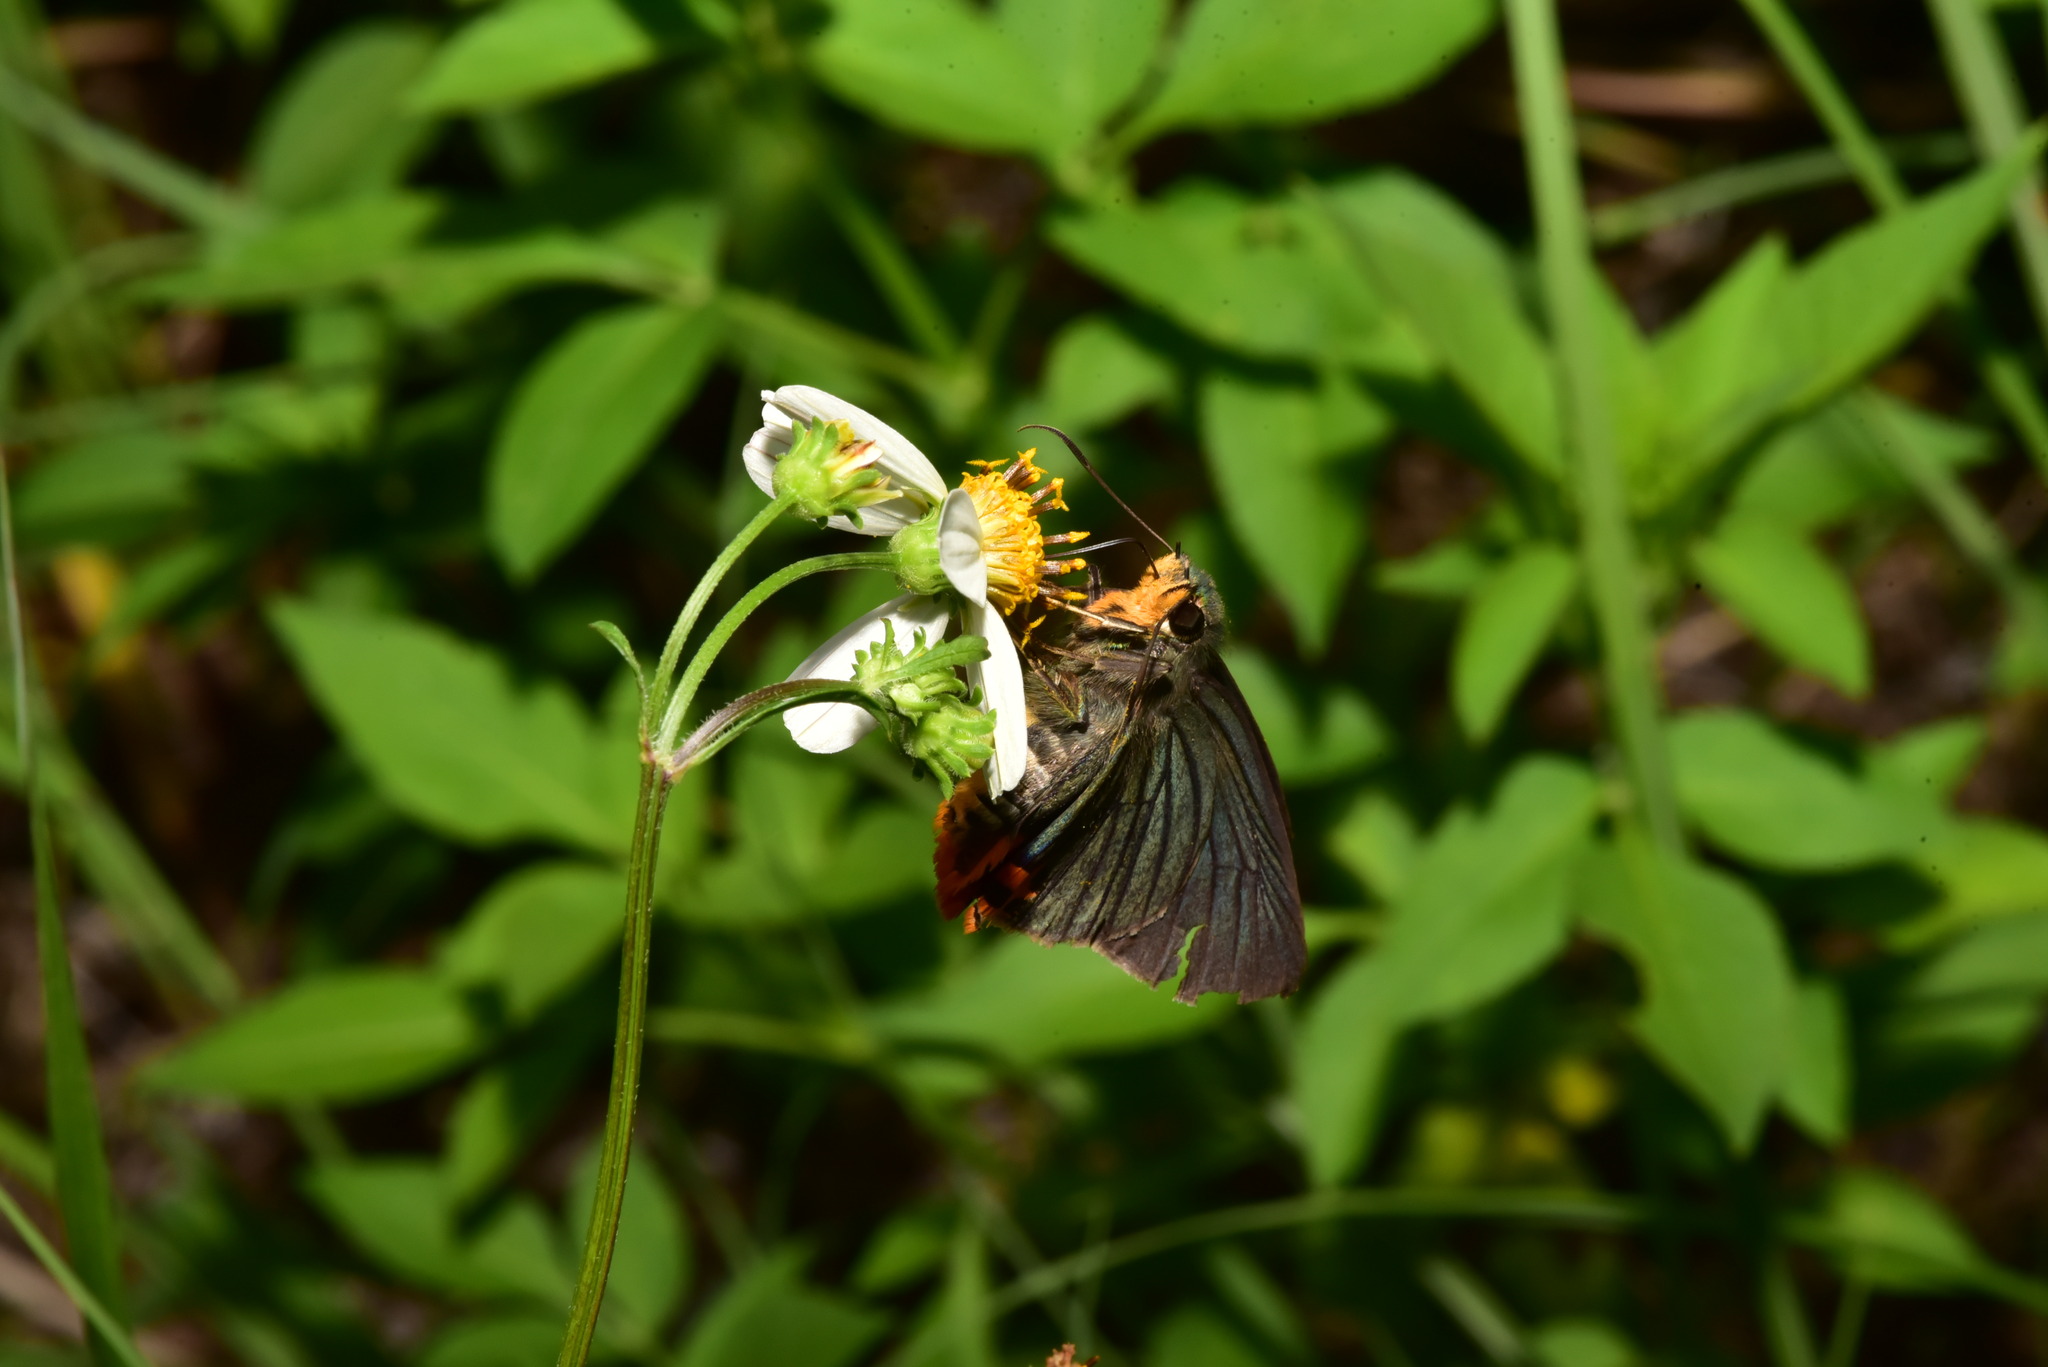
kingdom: Animalia
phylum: Arthropoda
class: Insecta
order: Lepidoptera
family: Hesperiidae
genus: Choaspes
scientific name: Choaspes benjaminii
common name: Indian awlking
